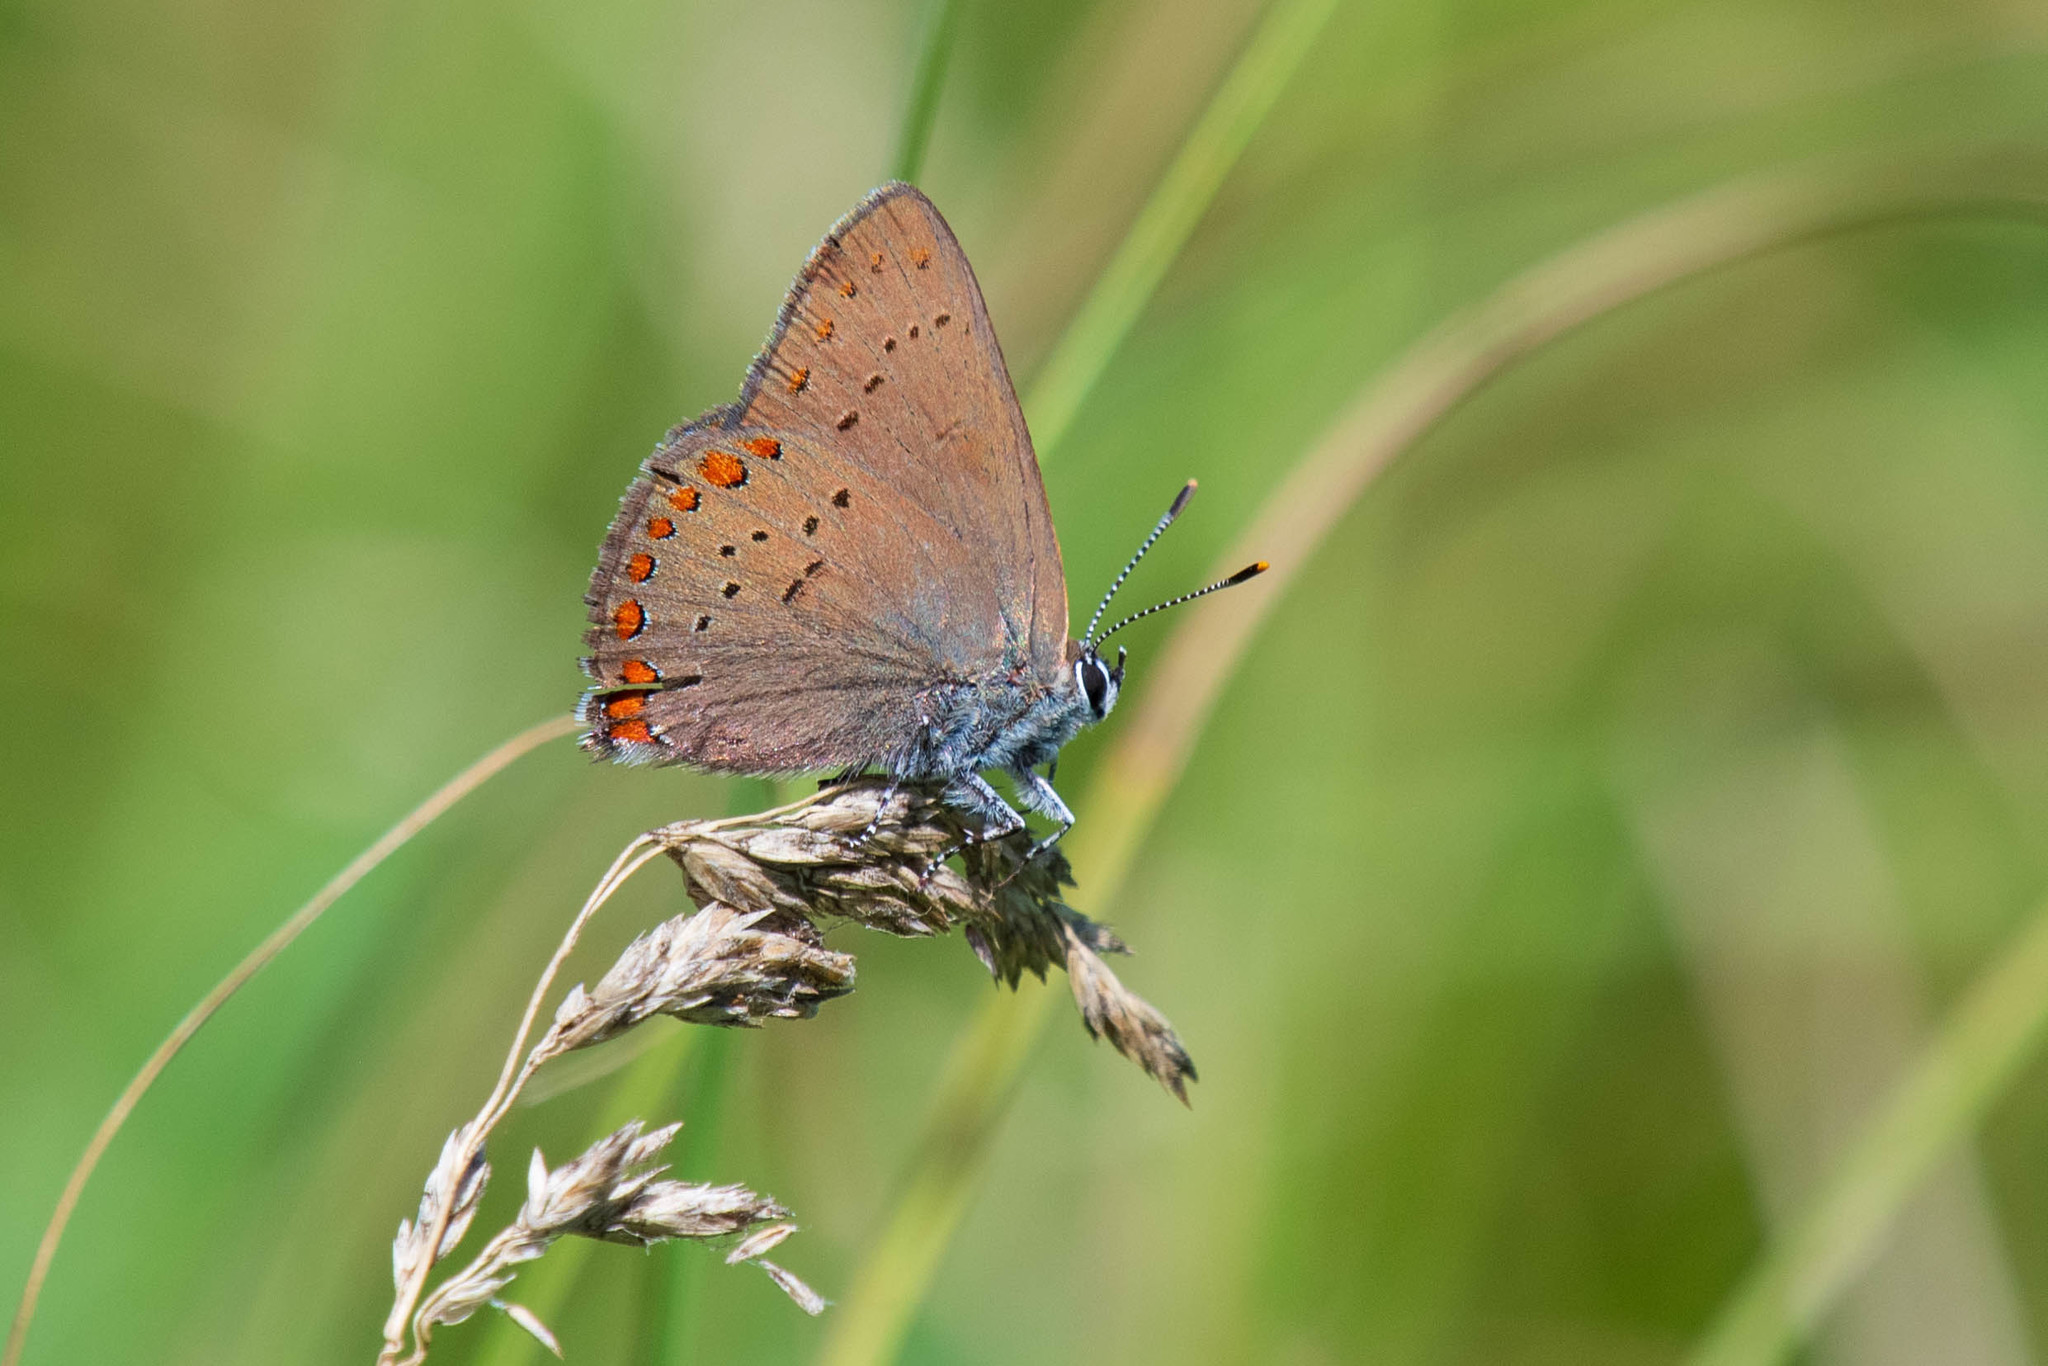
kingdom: Animalia
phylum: Arthropoda
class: Insecta
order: Lepidoptera
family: Lycaenidae
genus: Harkenclenus
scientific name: Harkenclenus titus
